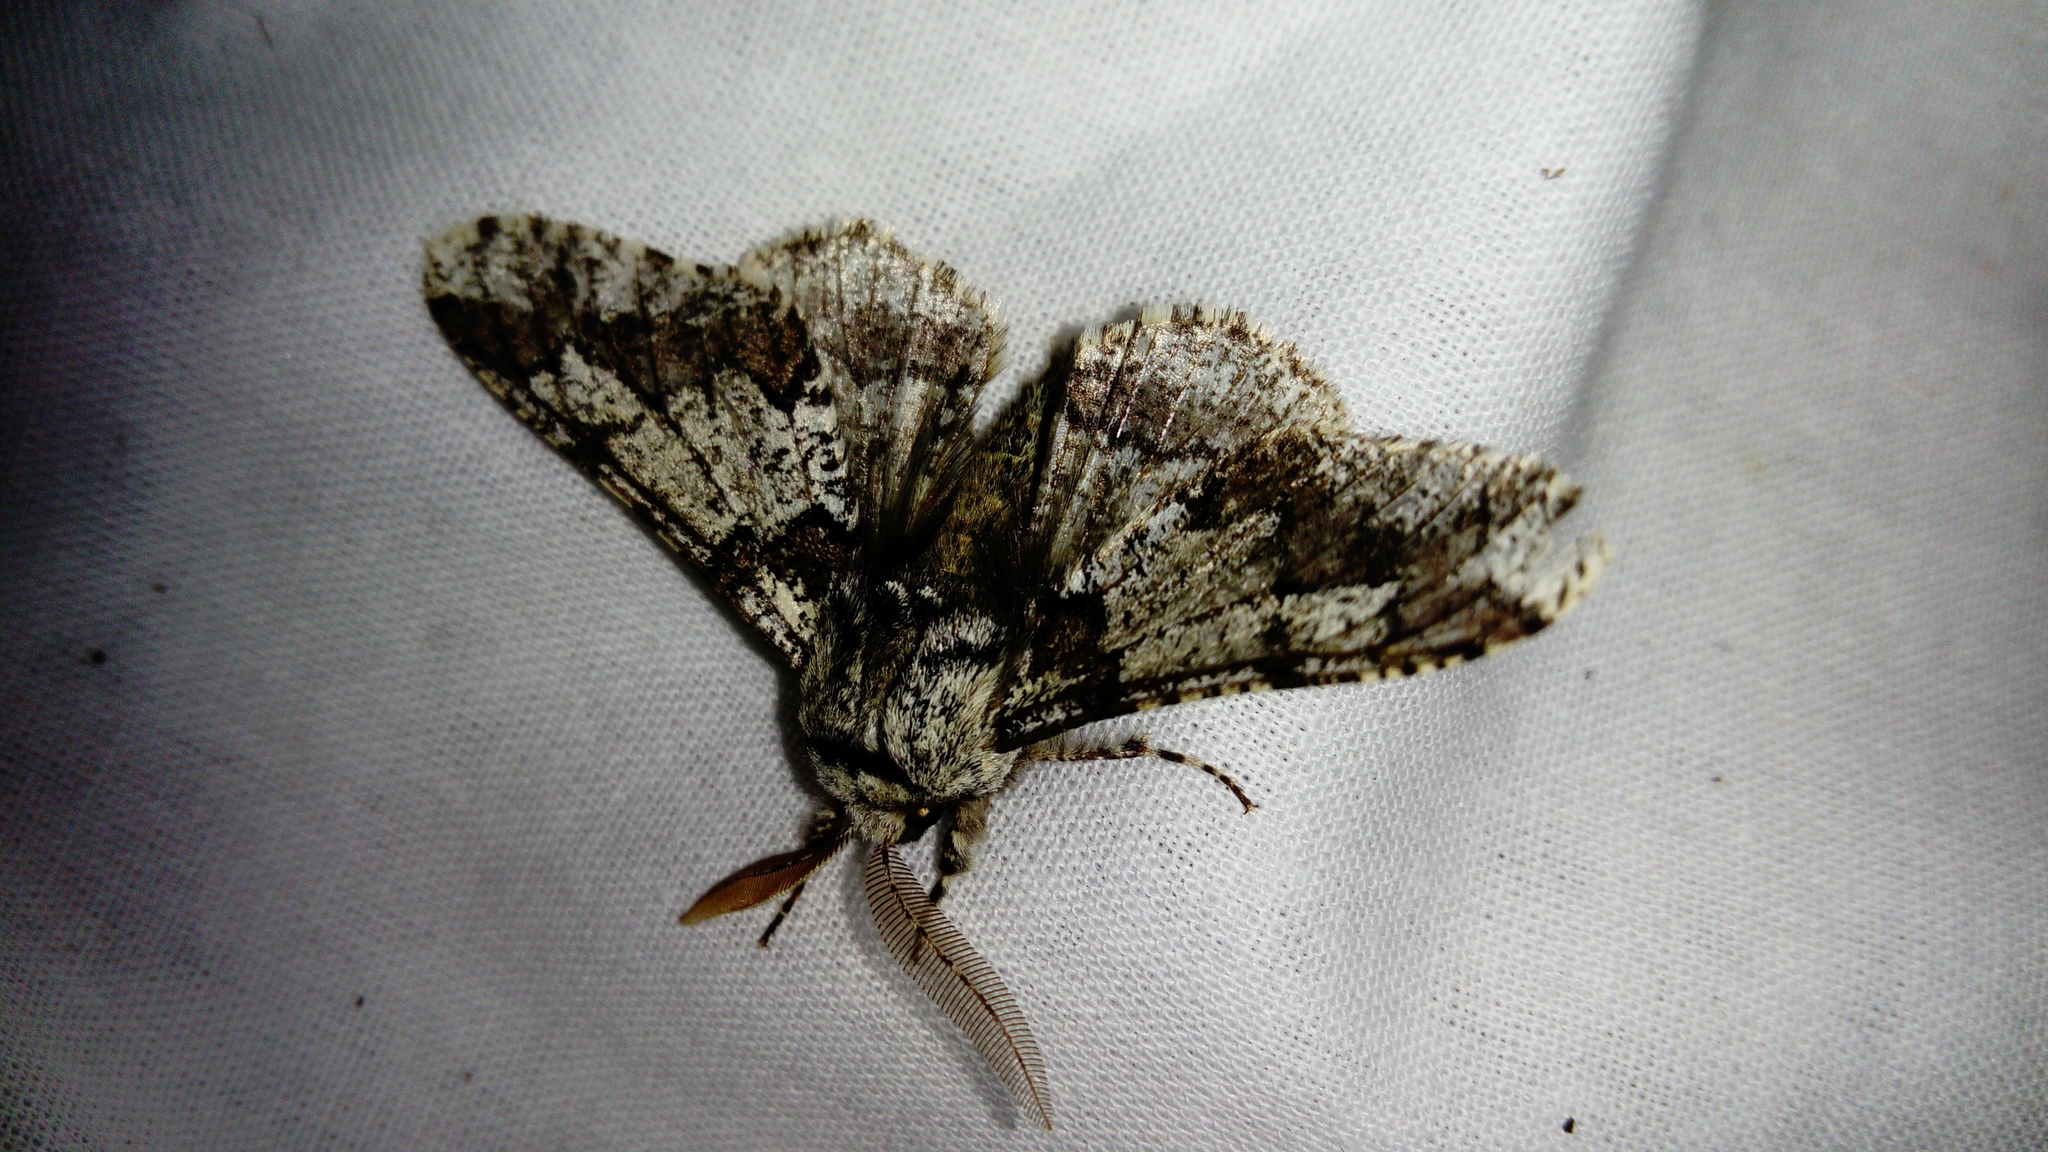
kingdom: Animalia
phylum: Arthropoda
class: Insecta
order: Lepidoptera
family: Geometridae
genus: Biston
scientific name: Biston strataria
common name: Oak beauty
